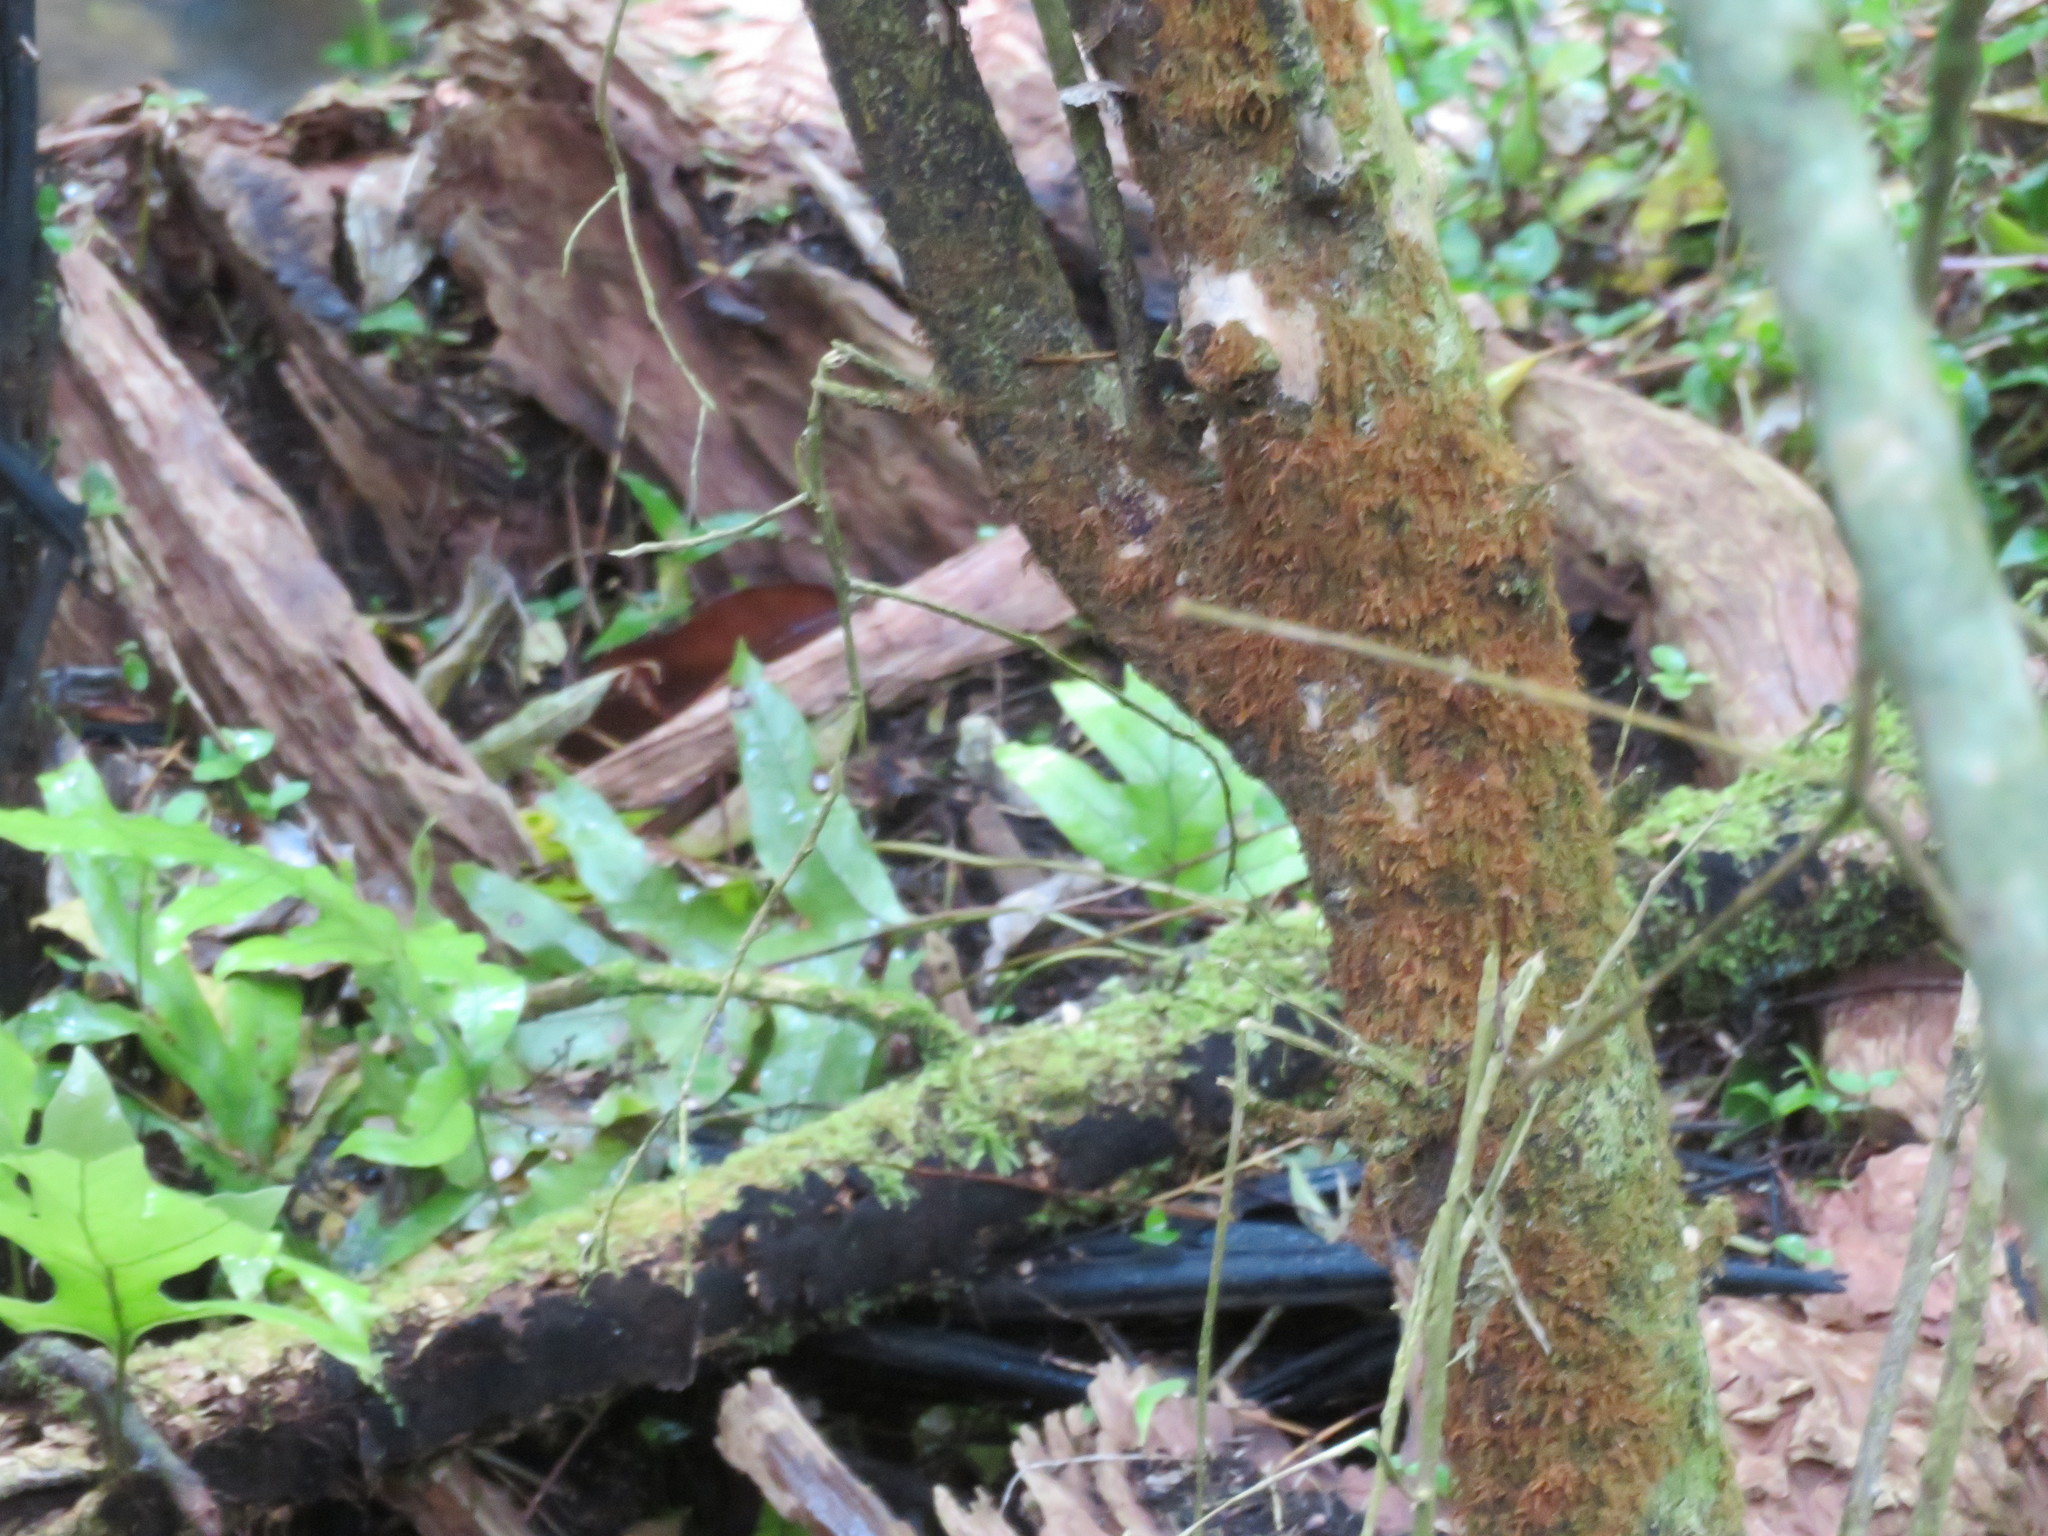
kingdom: Plantae
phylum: Tracheophyta
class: Polypodiopsida
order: Polypodiales
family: Polypodiaceae
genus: Lecanopteris
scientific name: Lecanopteris pustulata
